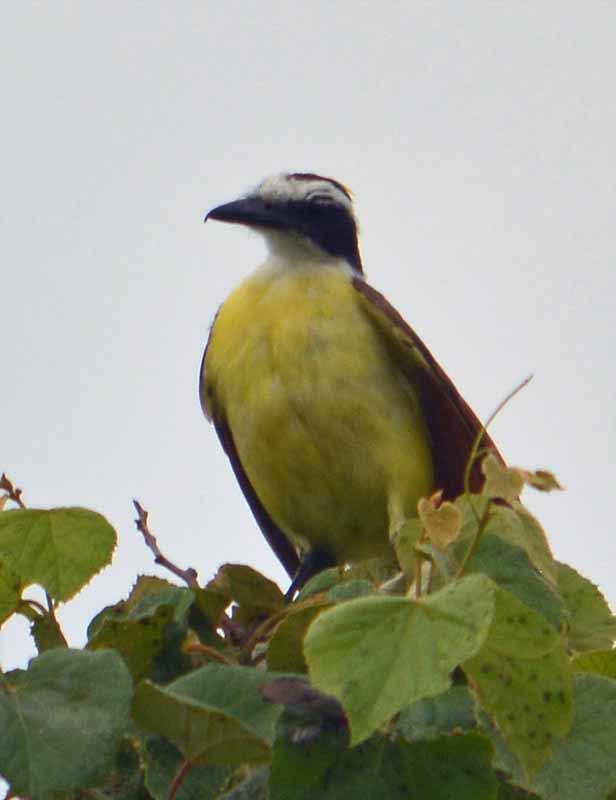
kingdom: Animalia
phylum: Chordata
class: Aves
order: Passeriformes
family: Tyrannidae
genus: Pitangus
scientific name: Pitangus sulphuratus
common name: Great kiskadee
